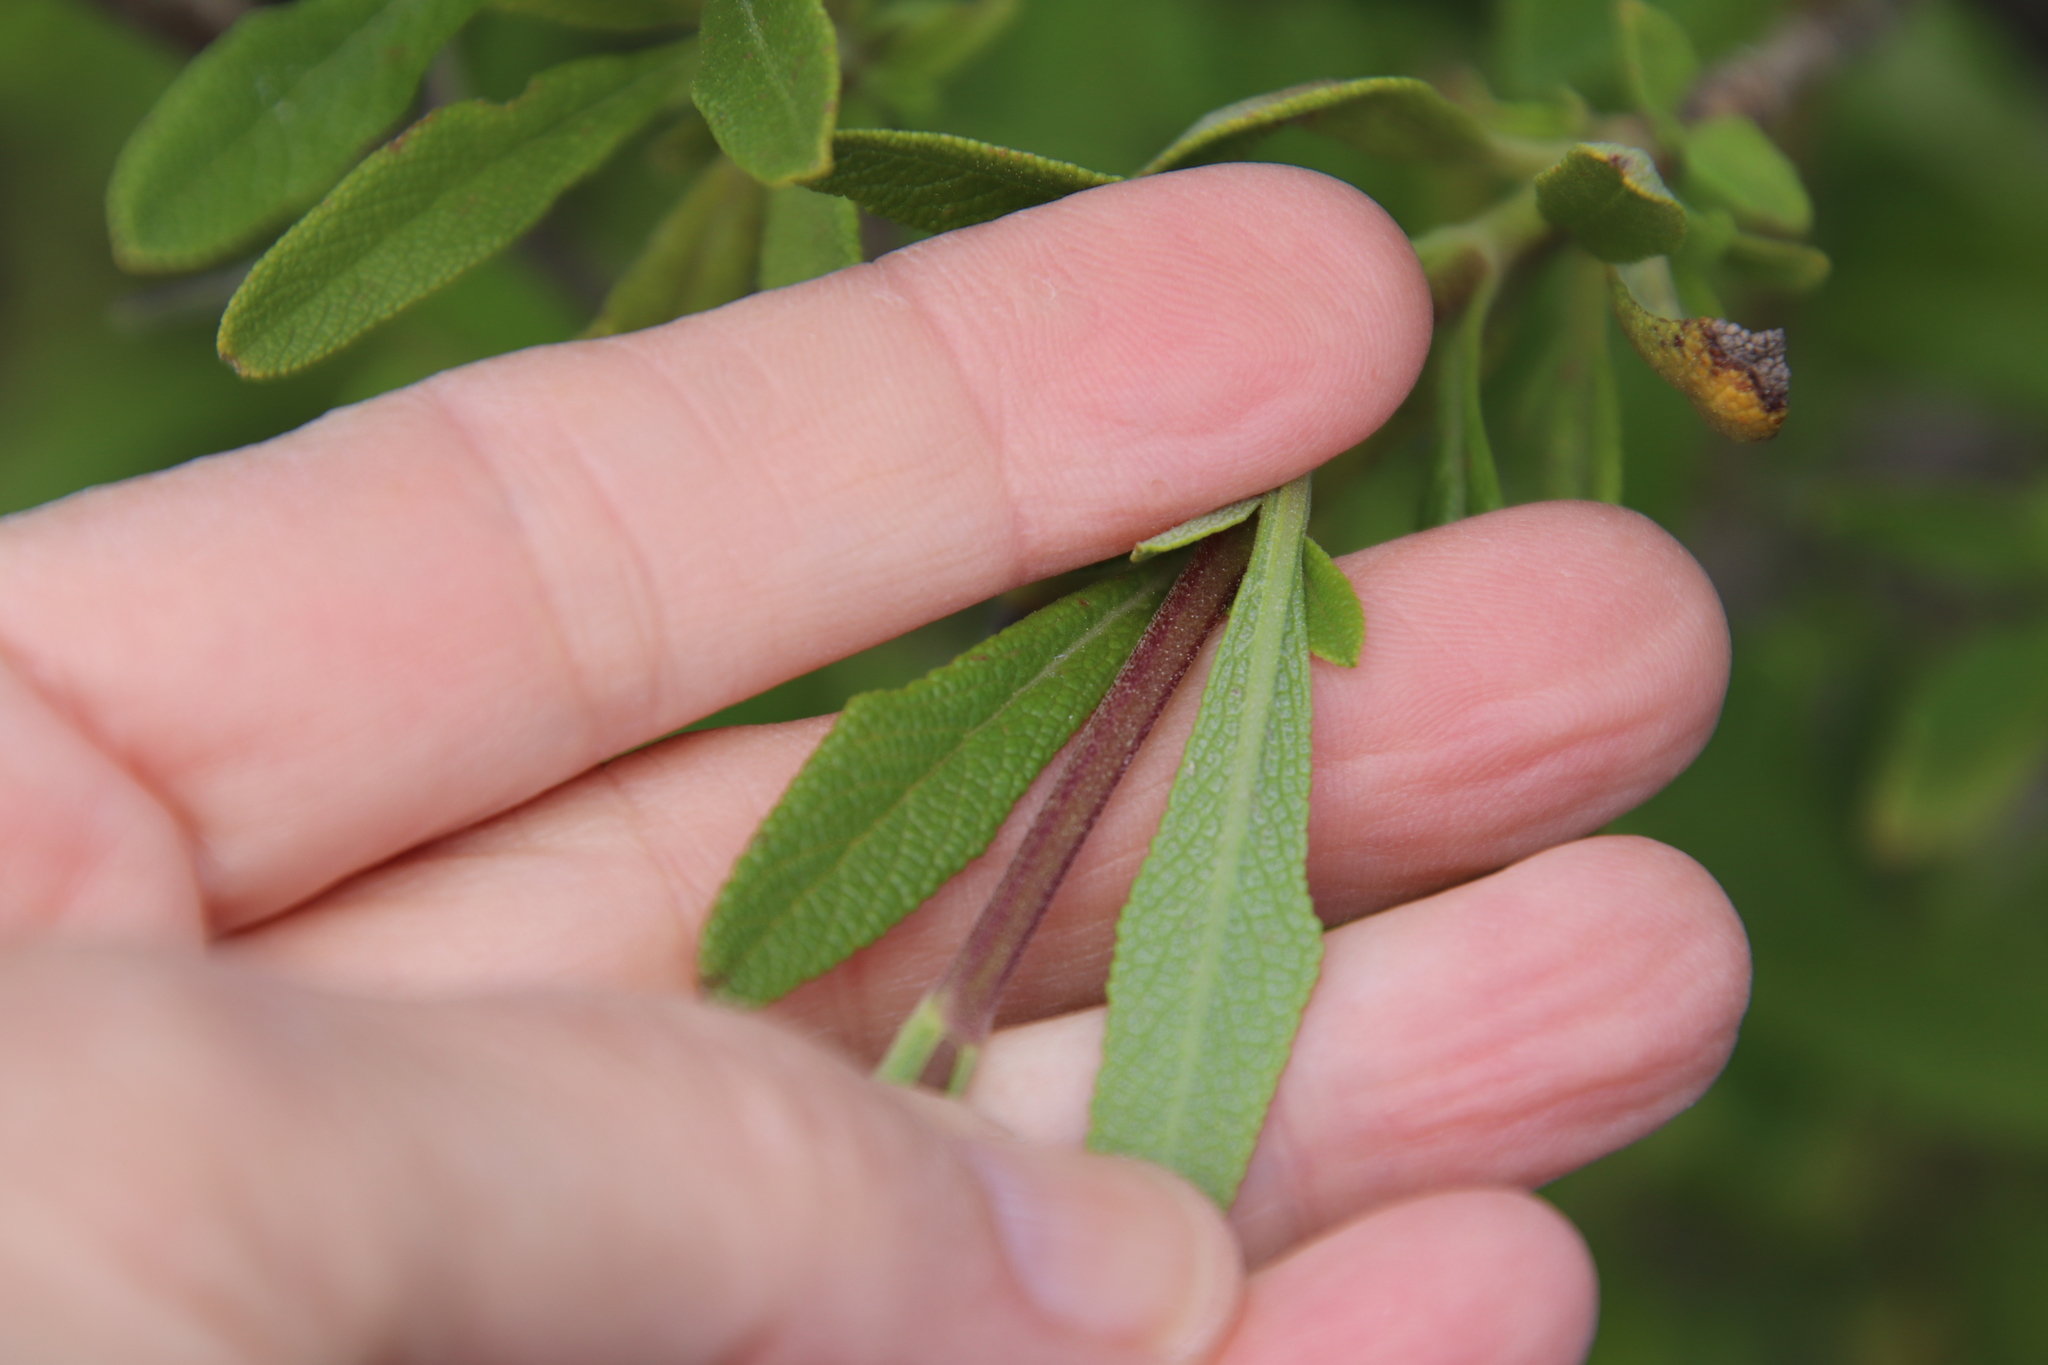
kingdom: Plantae
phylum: Tracheophyta
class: Magnoliopsida
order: Lamiales
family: Lamiaceae
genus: Salvia
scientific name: Salvia mellifera
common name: Black sage
